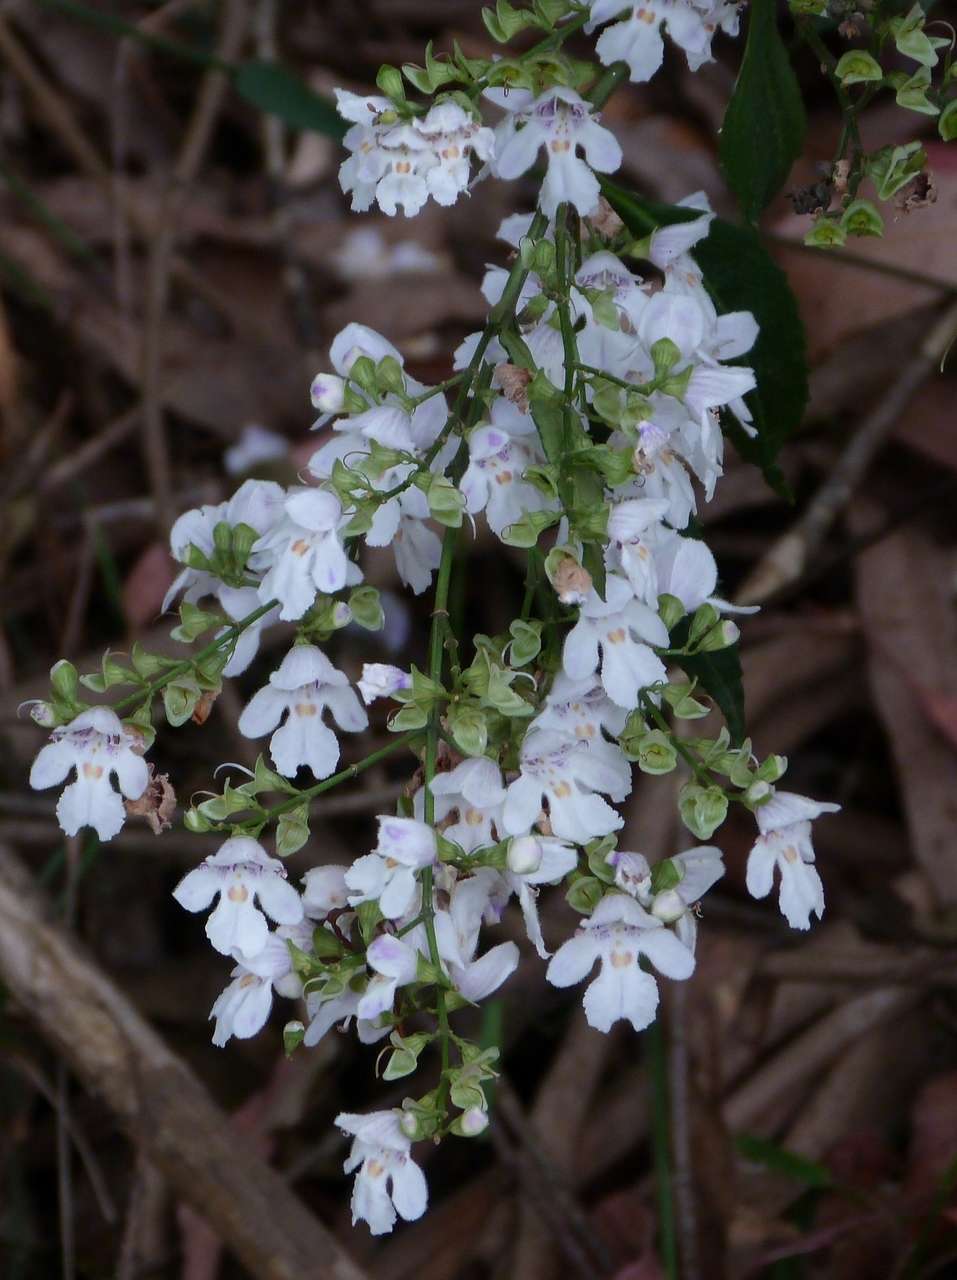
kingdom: Plantae
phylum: Tracheophyta
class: Magnoliopsida
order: Lamiales
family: Lamiaceae
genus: Prostanthera
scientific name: Prostanthera lasianthos
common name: Mountain-lilac
